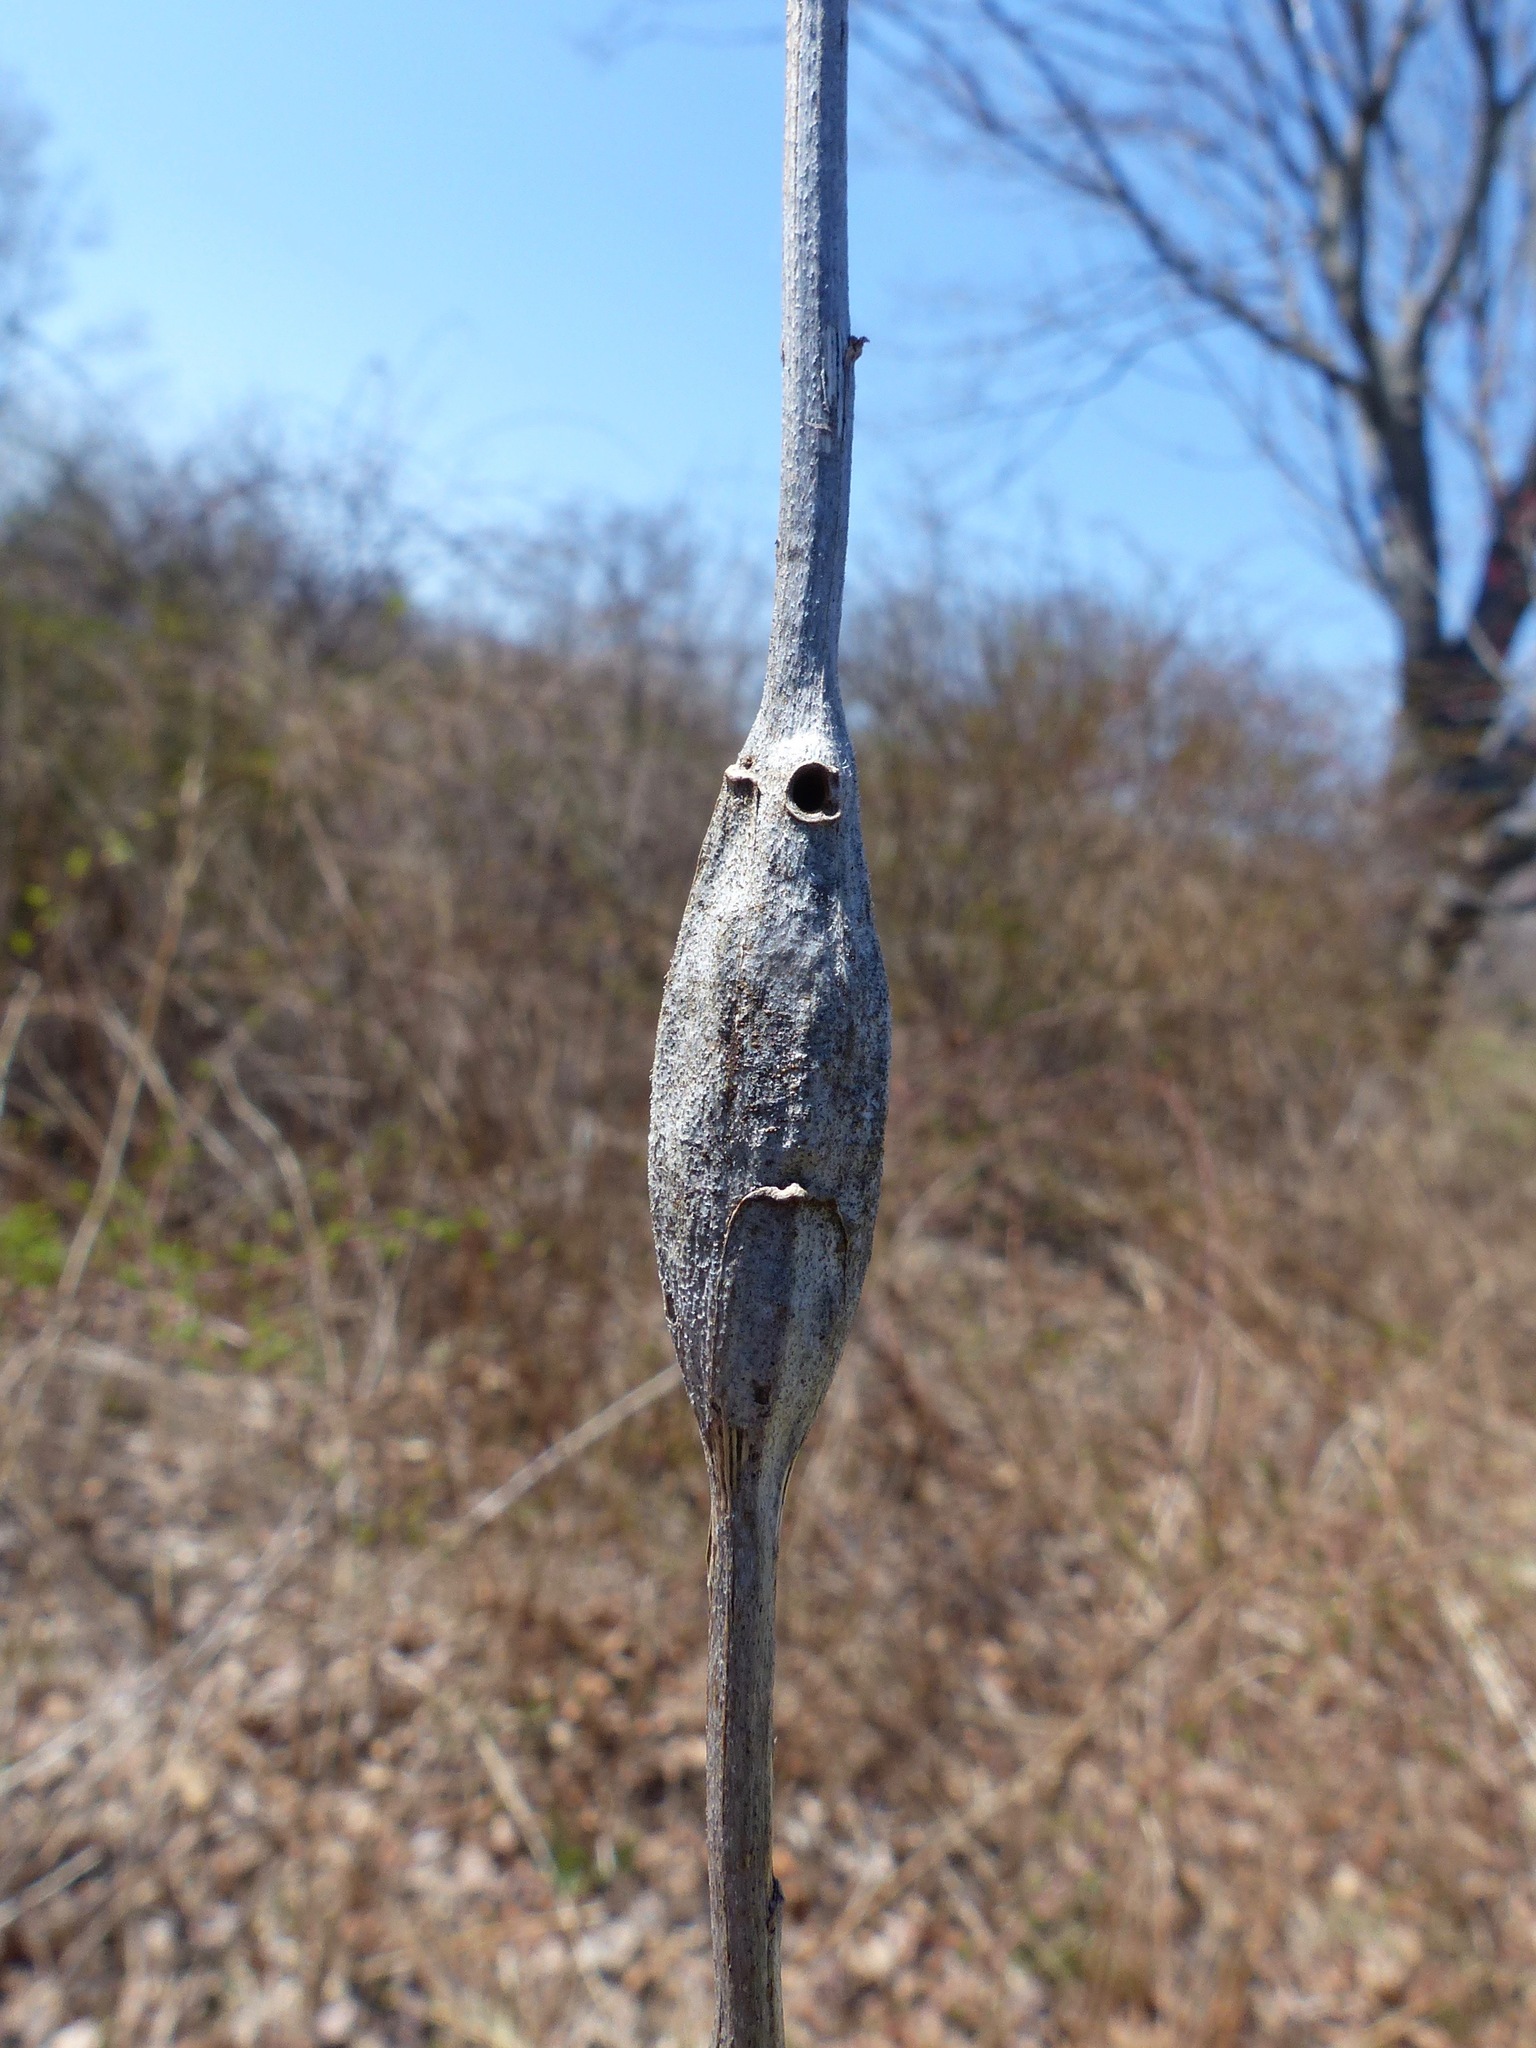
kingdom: Animalia
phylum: Arthropoda
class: Insecta
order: Lepidoptera
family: Gelechiidae
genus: Gnorimoschema
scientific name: Gnorimoschema gallaesolidaginis
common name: Goldenrod elliptical-gall moth
